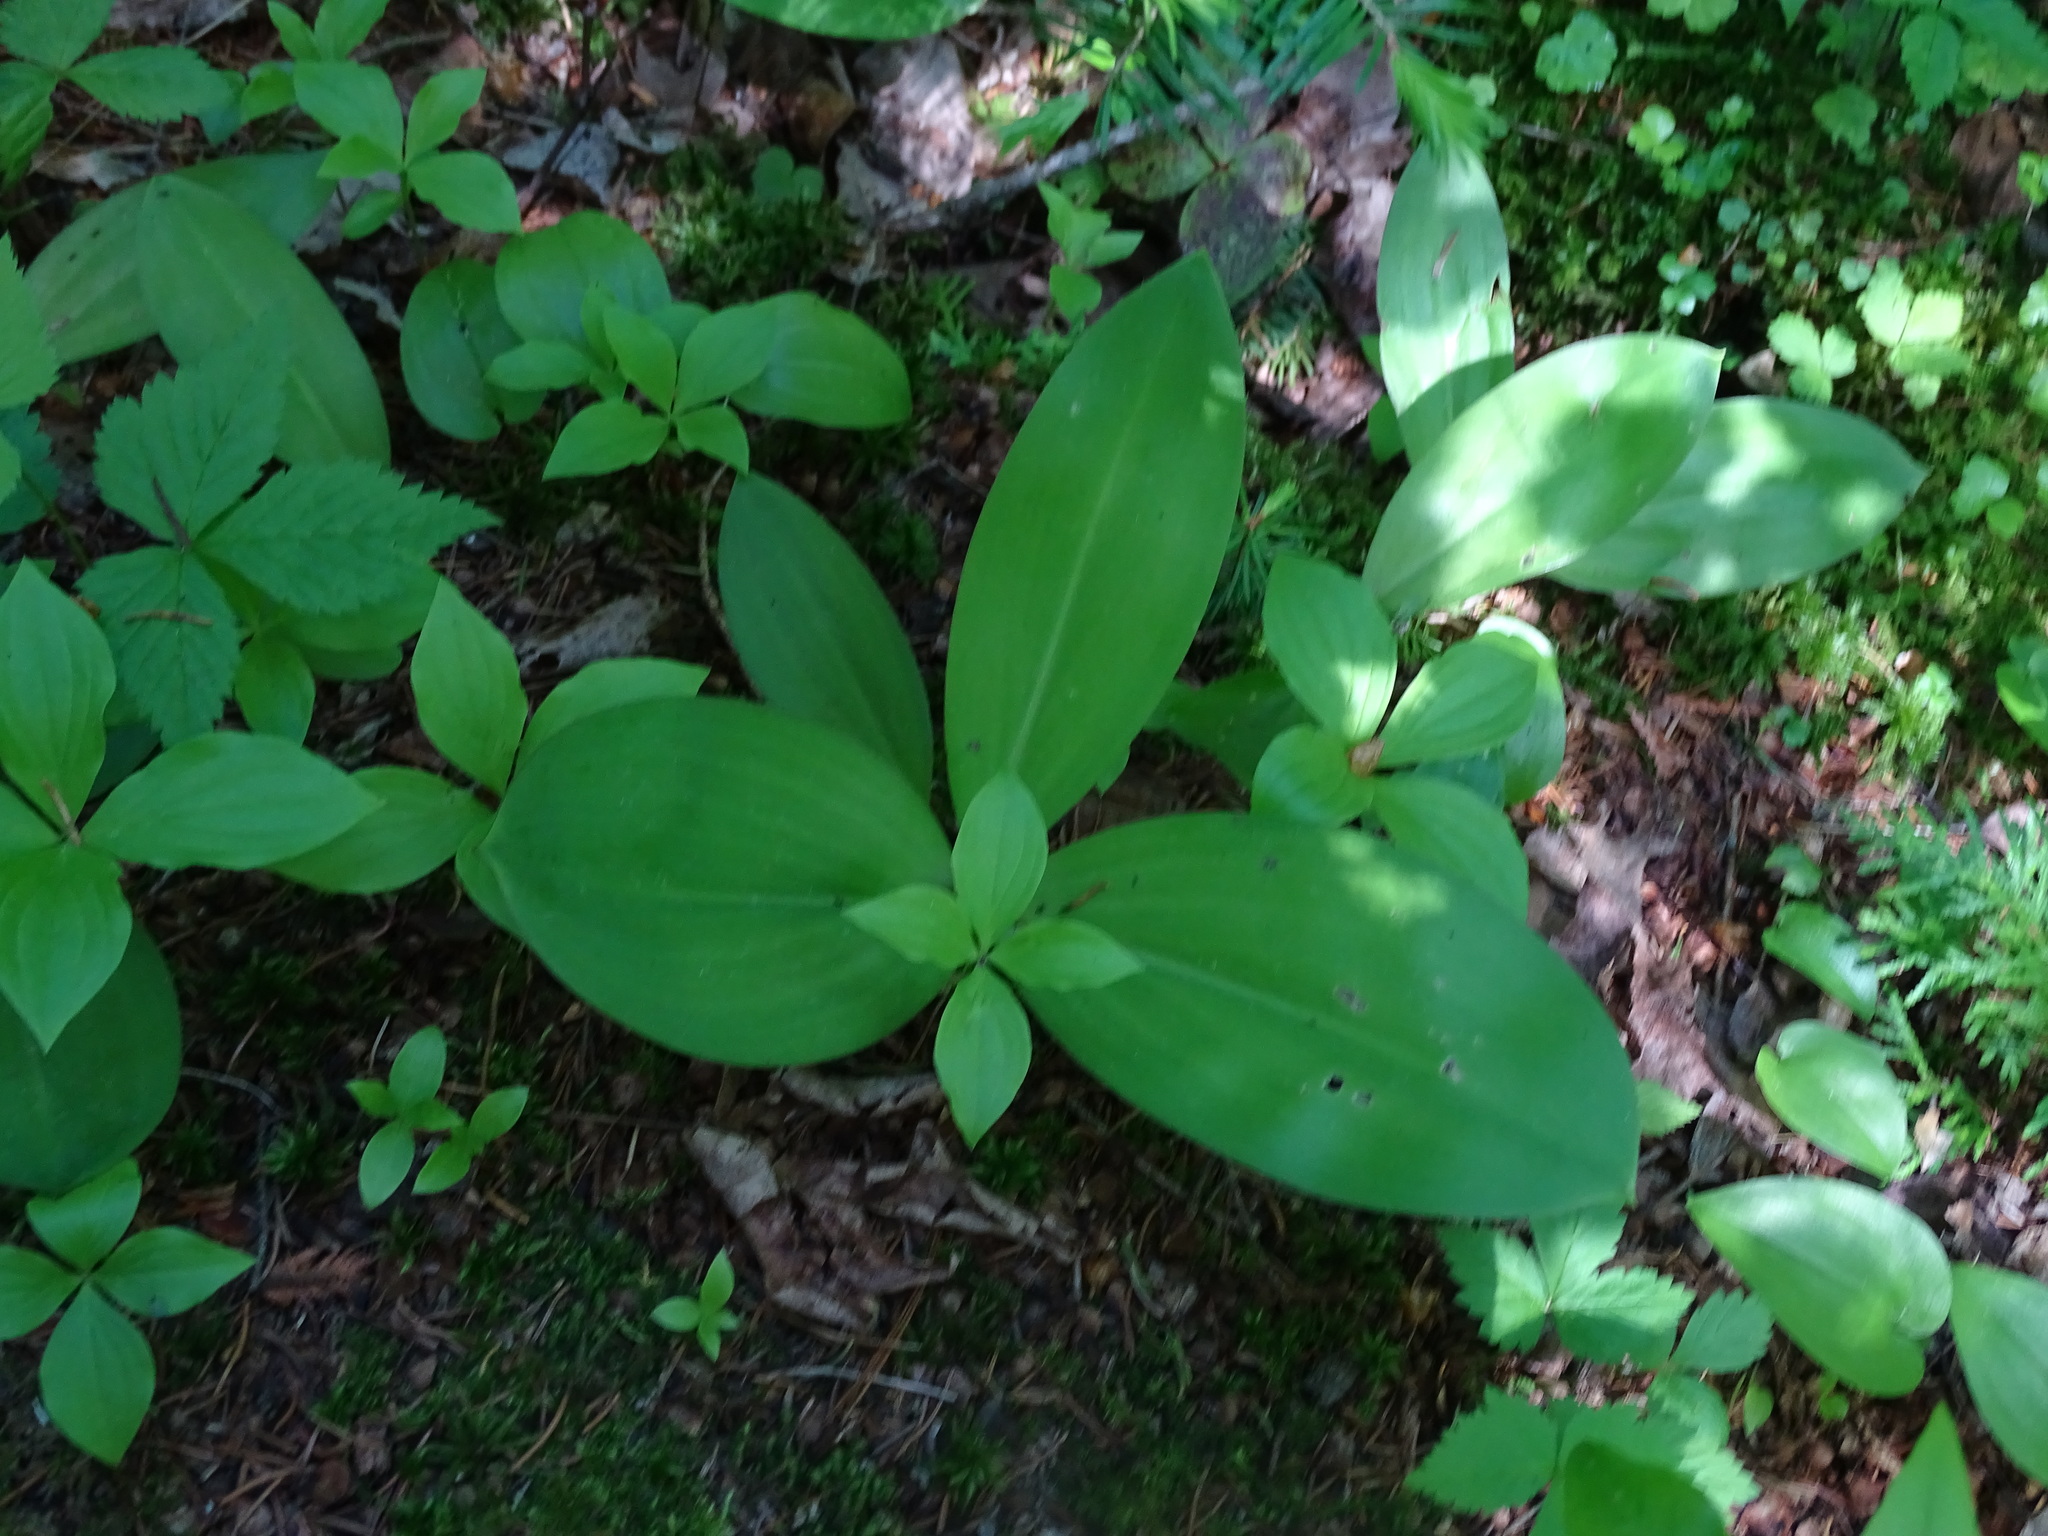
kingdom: Plantae
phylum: Tracheophyta
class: Liliopsida
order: Liliales
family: Liliaceae
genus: Clintonia
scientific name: Clintonia borealis
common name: Yellow clintonia
